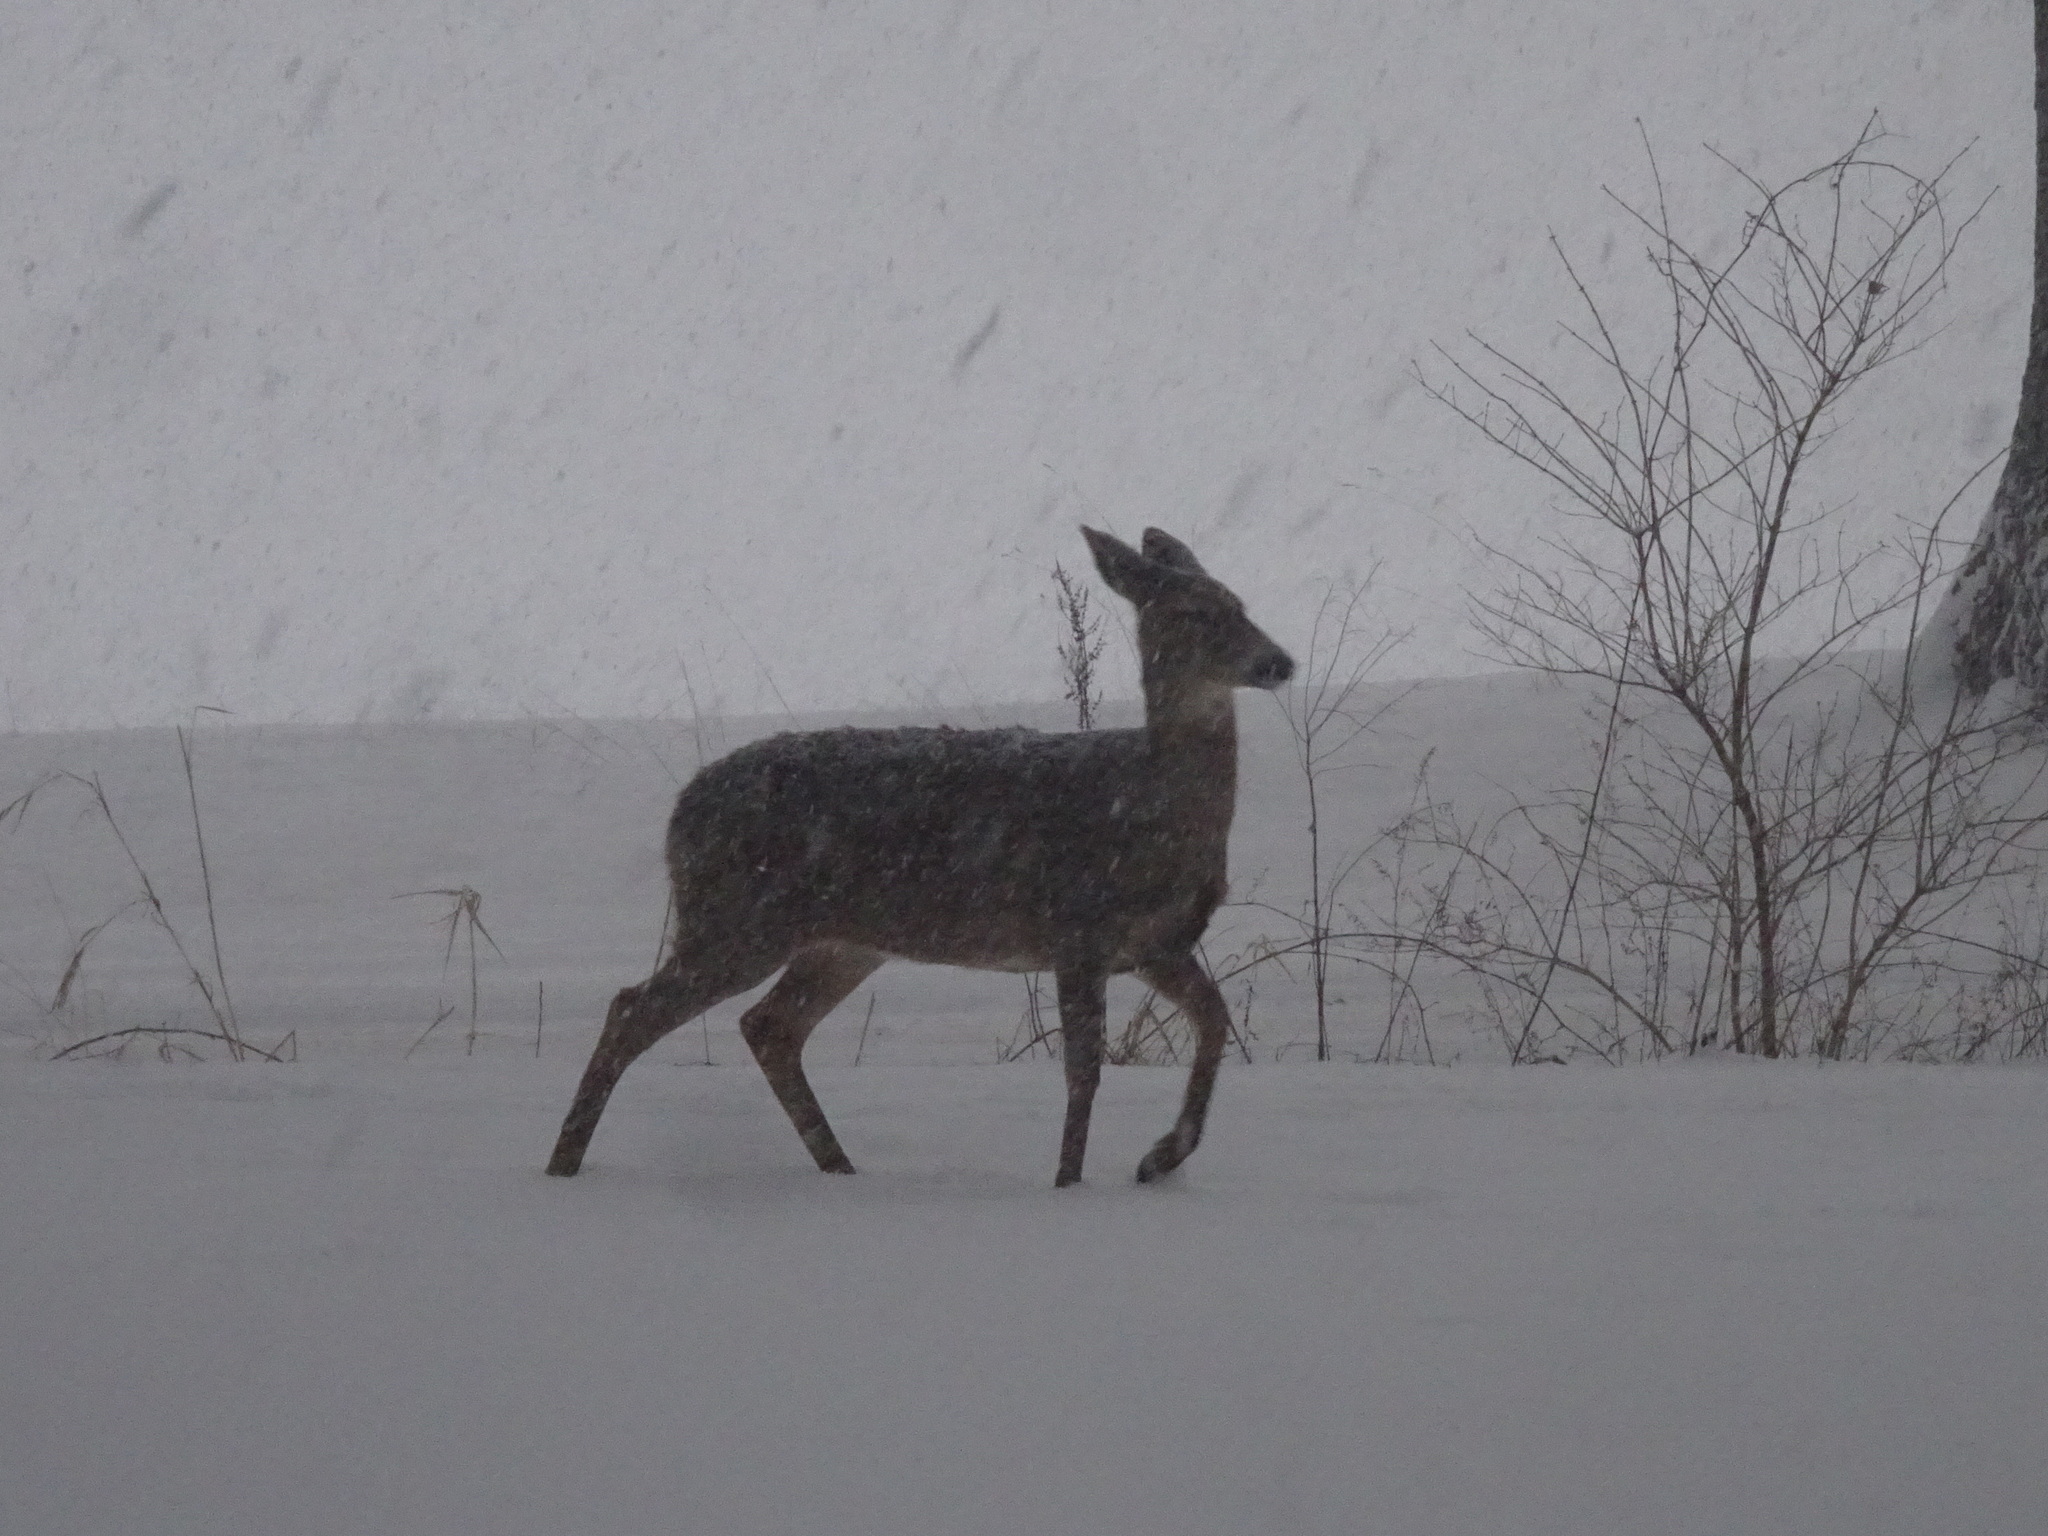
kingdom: Animalia
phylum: Chordata
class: Mammalia
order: Artiodactyla
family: Cervidae
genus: Odocoileus
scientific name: Odocoileus virginianus
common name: White-tailed deer
